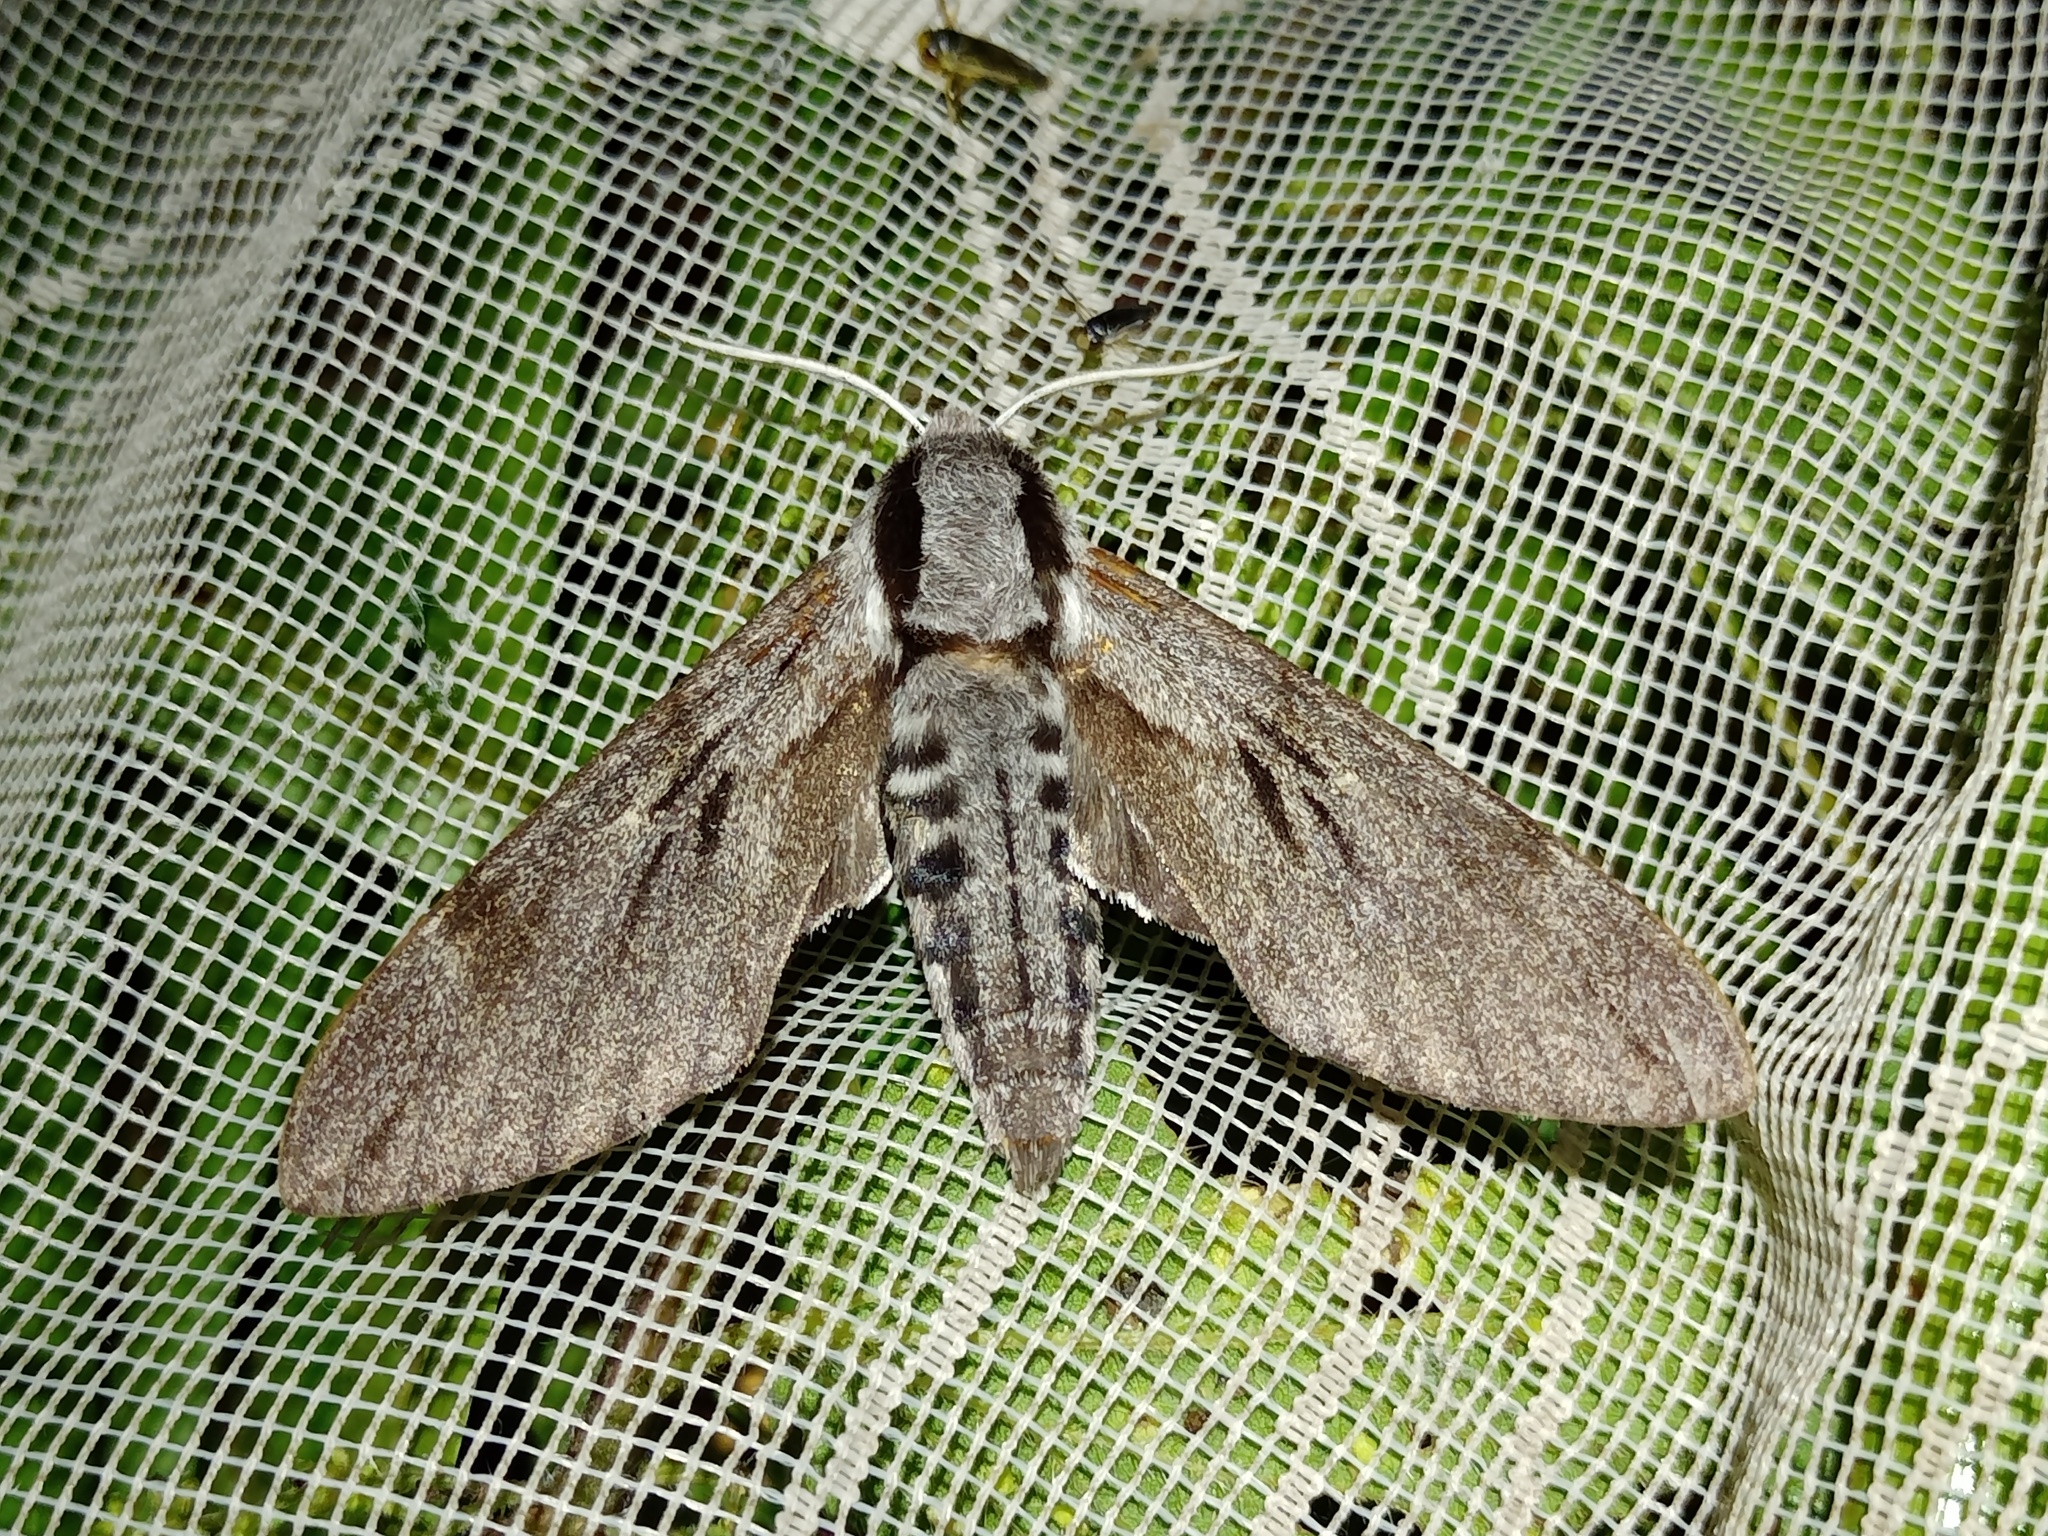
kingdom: Animalia
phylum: Arthropoda
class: Insecta
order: Lepidoptera
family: Sphingidae
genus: Sphinx
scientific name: Sphinx pinastri
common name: Pine hawk-moth
